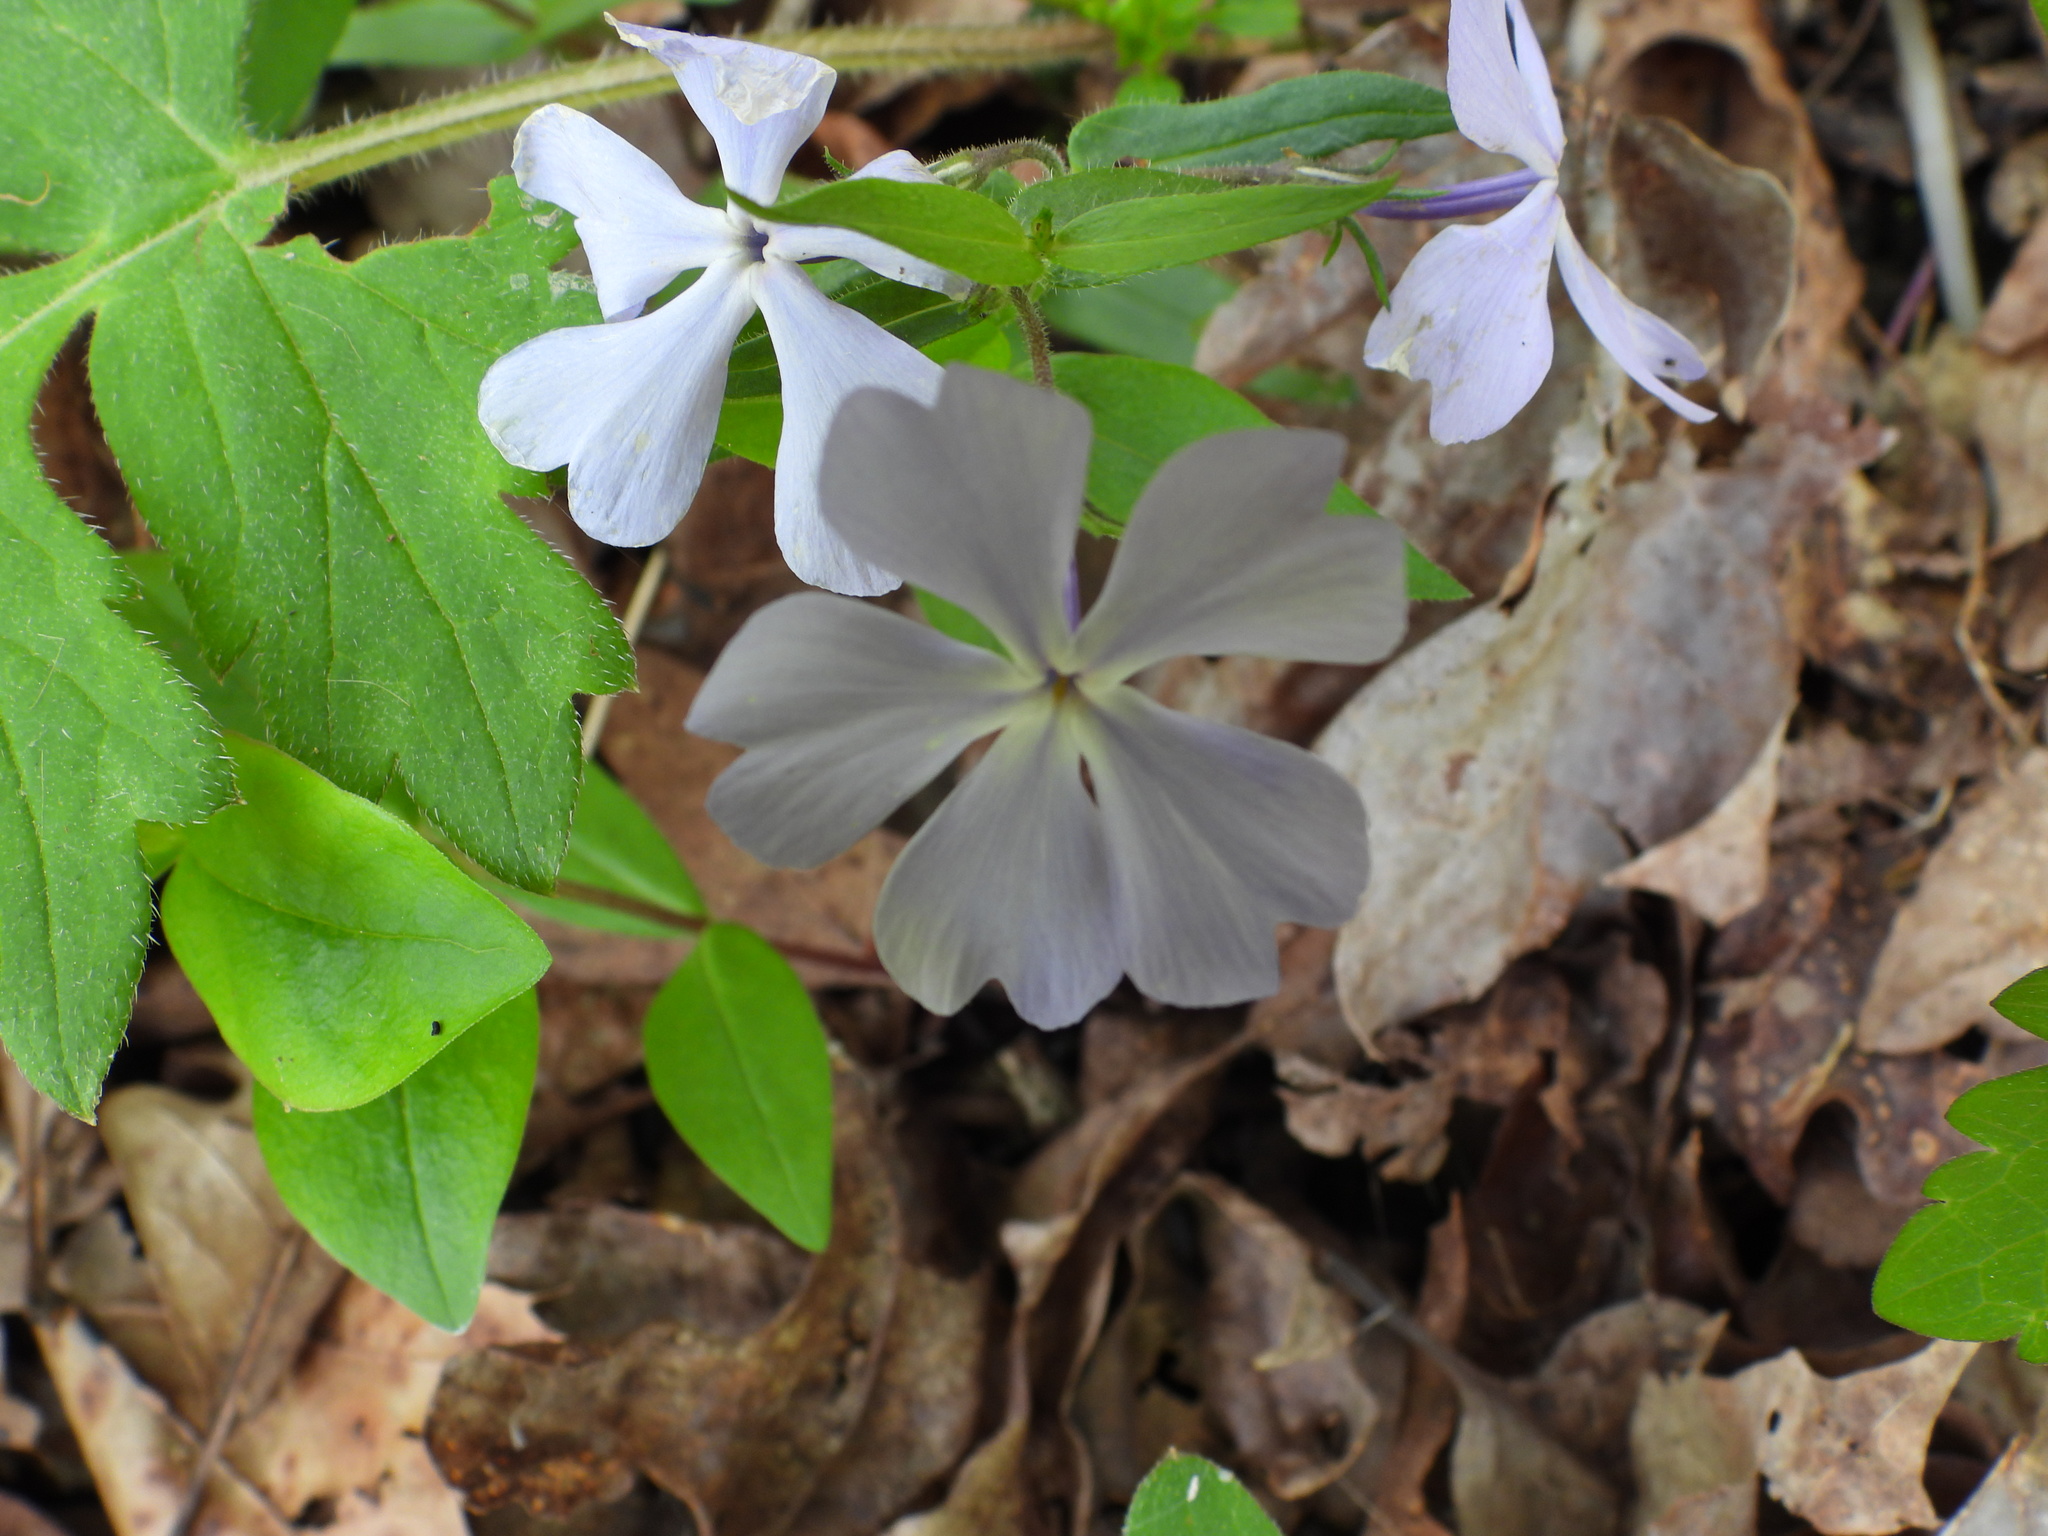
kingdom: Plantae
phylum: Tracheophyta
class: Magnoliopsida
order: Ericales
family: Polemoniaceae
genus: Phlox
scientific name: Phlox divaricata
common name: Blue phlox
